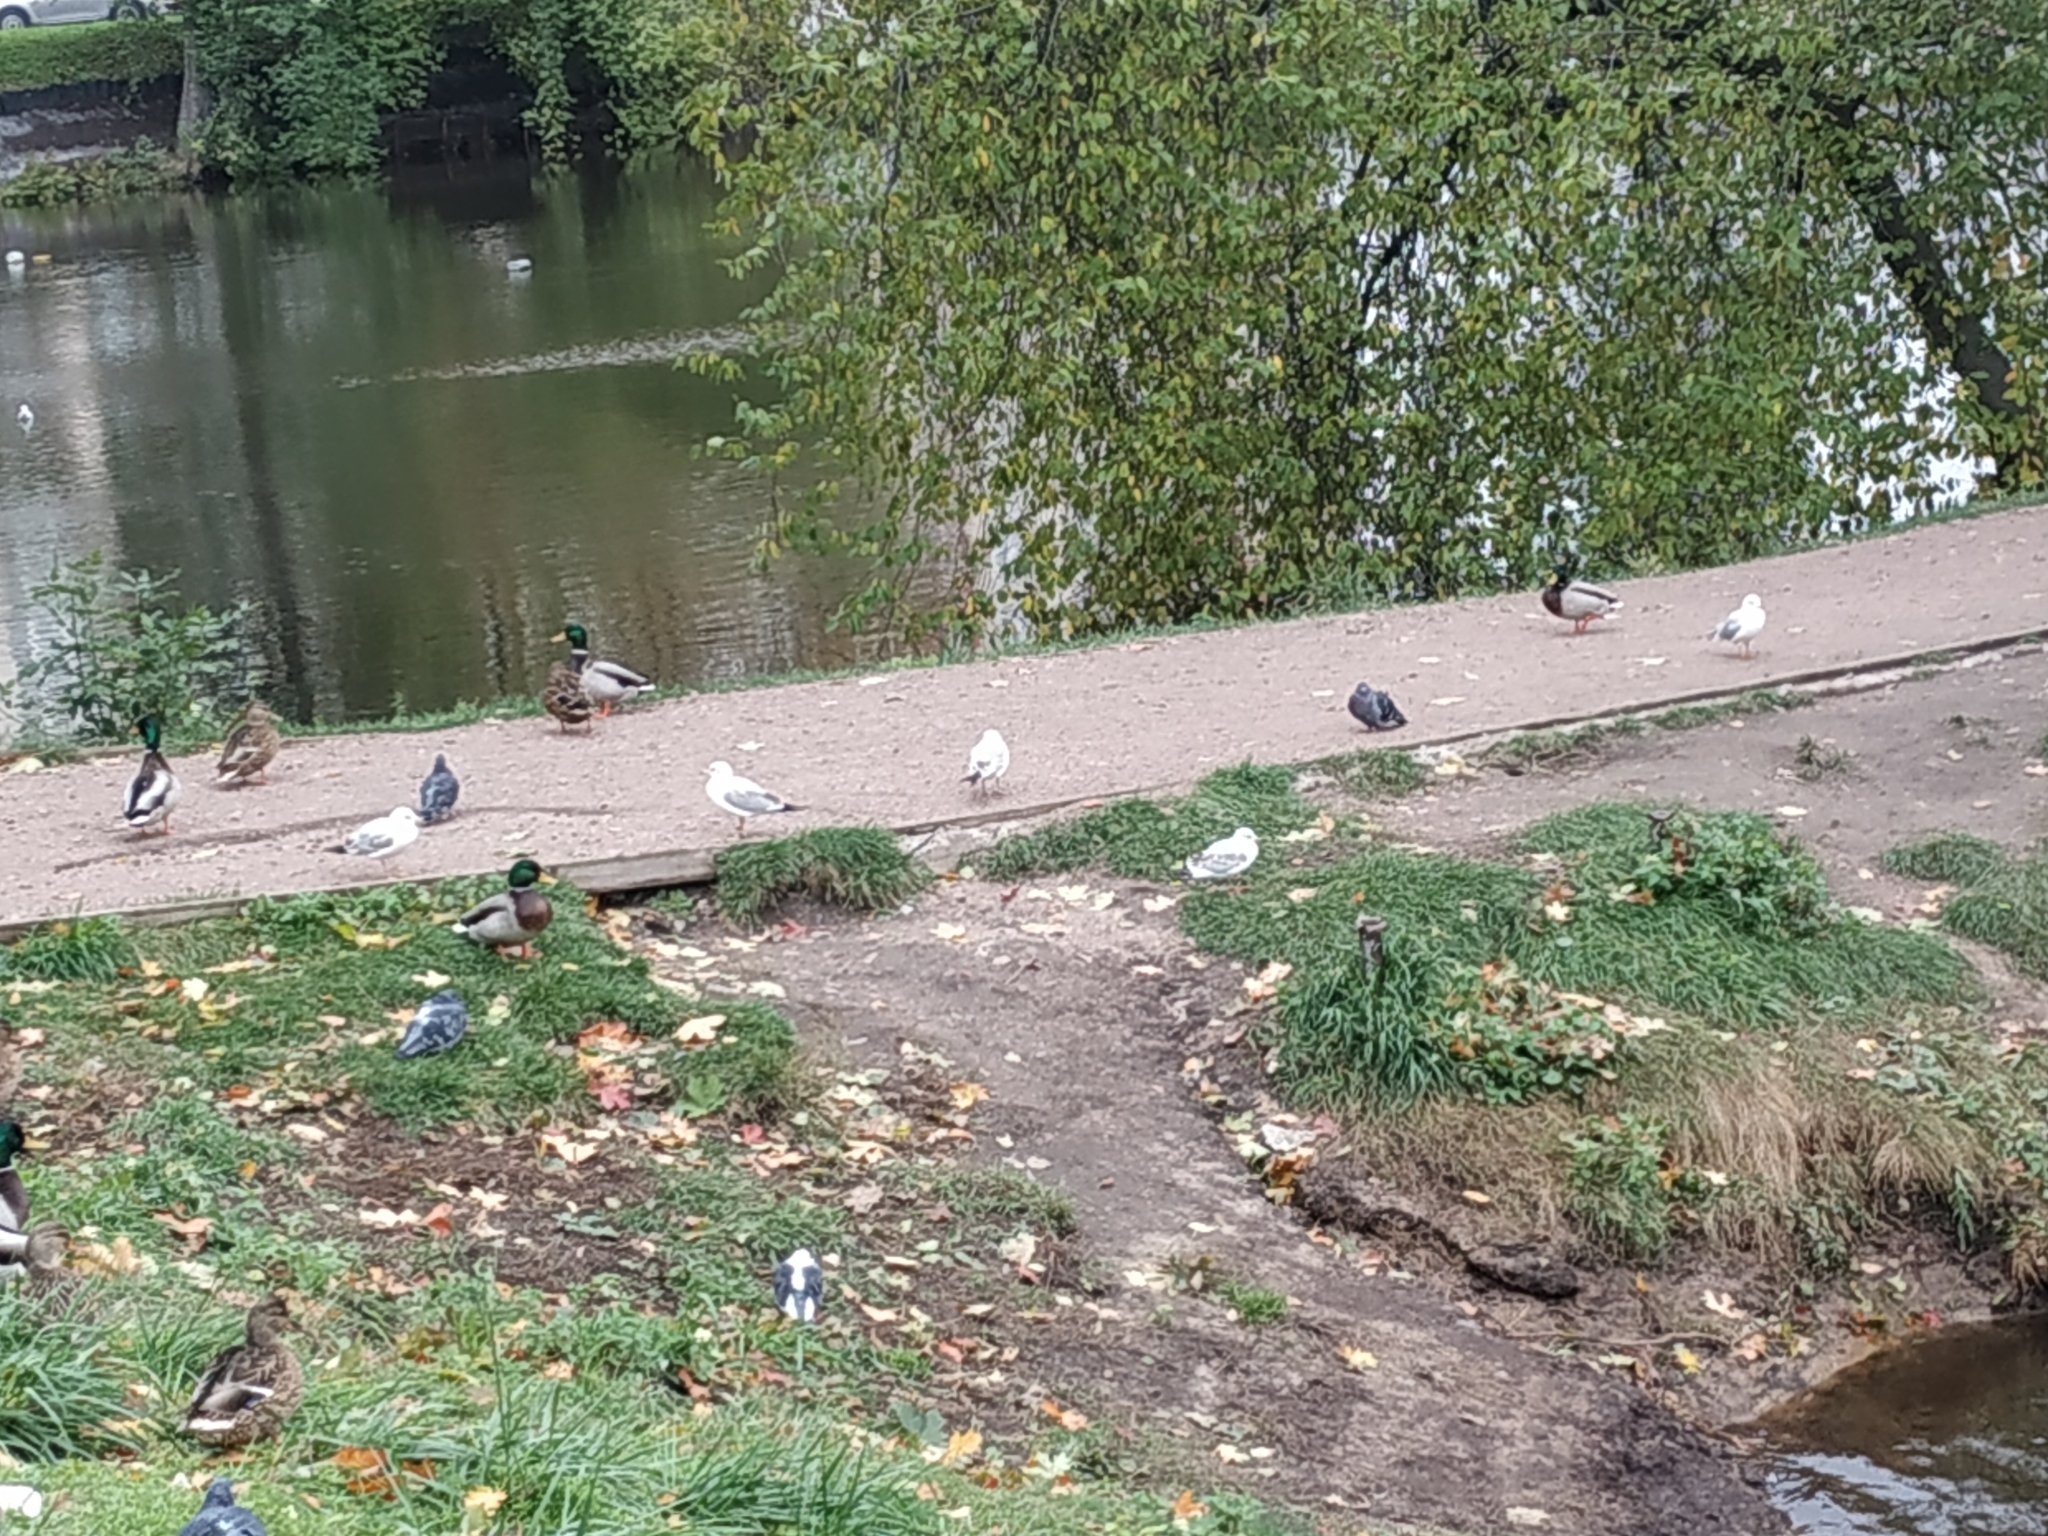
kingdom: Animalia
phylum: Chordata
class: Aves
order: Charadriiformes
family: Laridae
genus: Chroicocephalus
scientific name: Chroicocephalus ridibundus
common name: Black-headed gull
